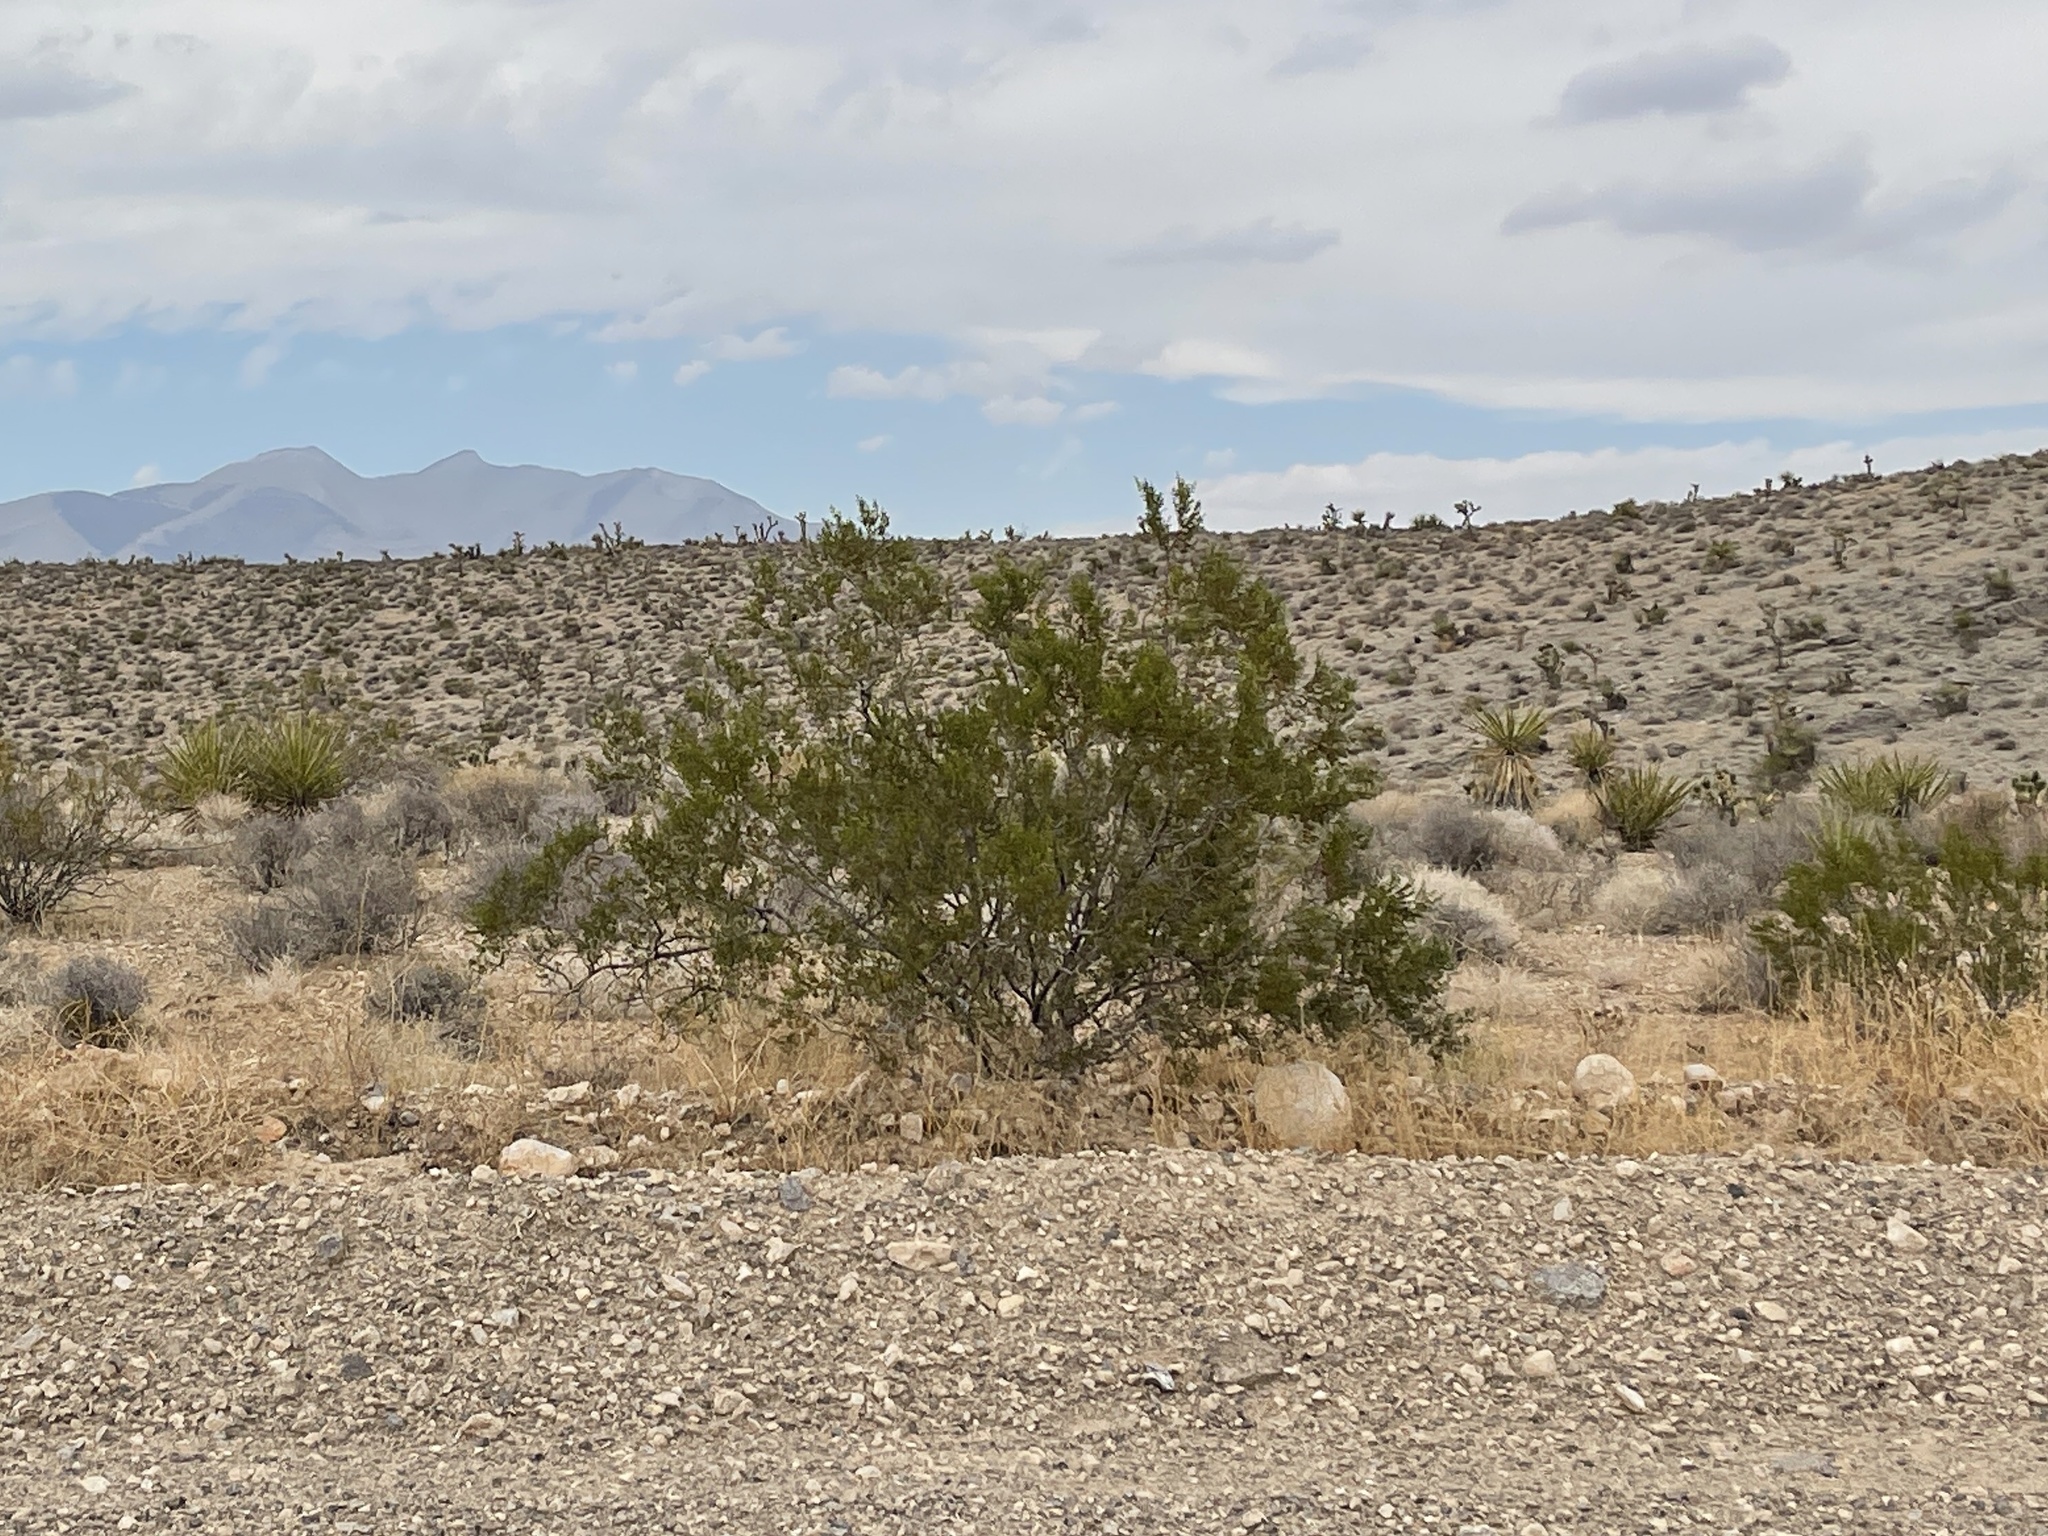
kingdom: Plantae
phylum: Tracheophyta
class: Magnoliopsida
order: Zygophyllales
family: Zygophyllaceae
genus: Larrea
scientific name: Larrea tridentata
